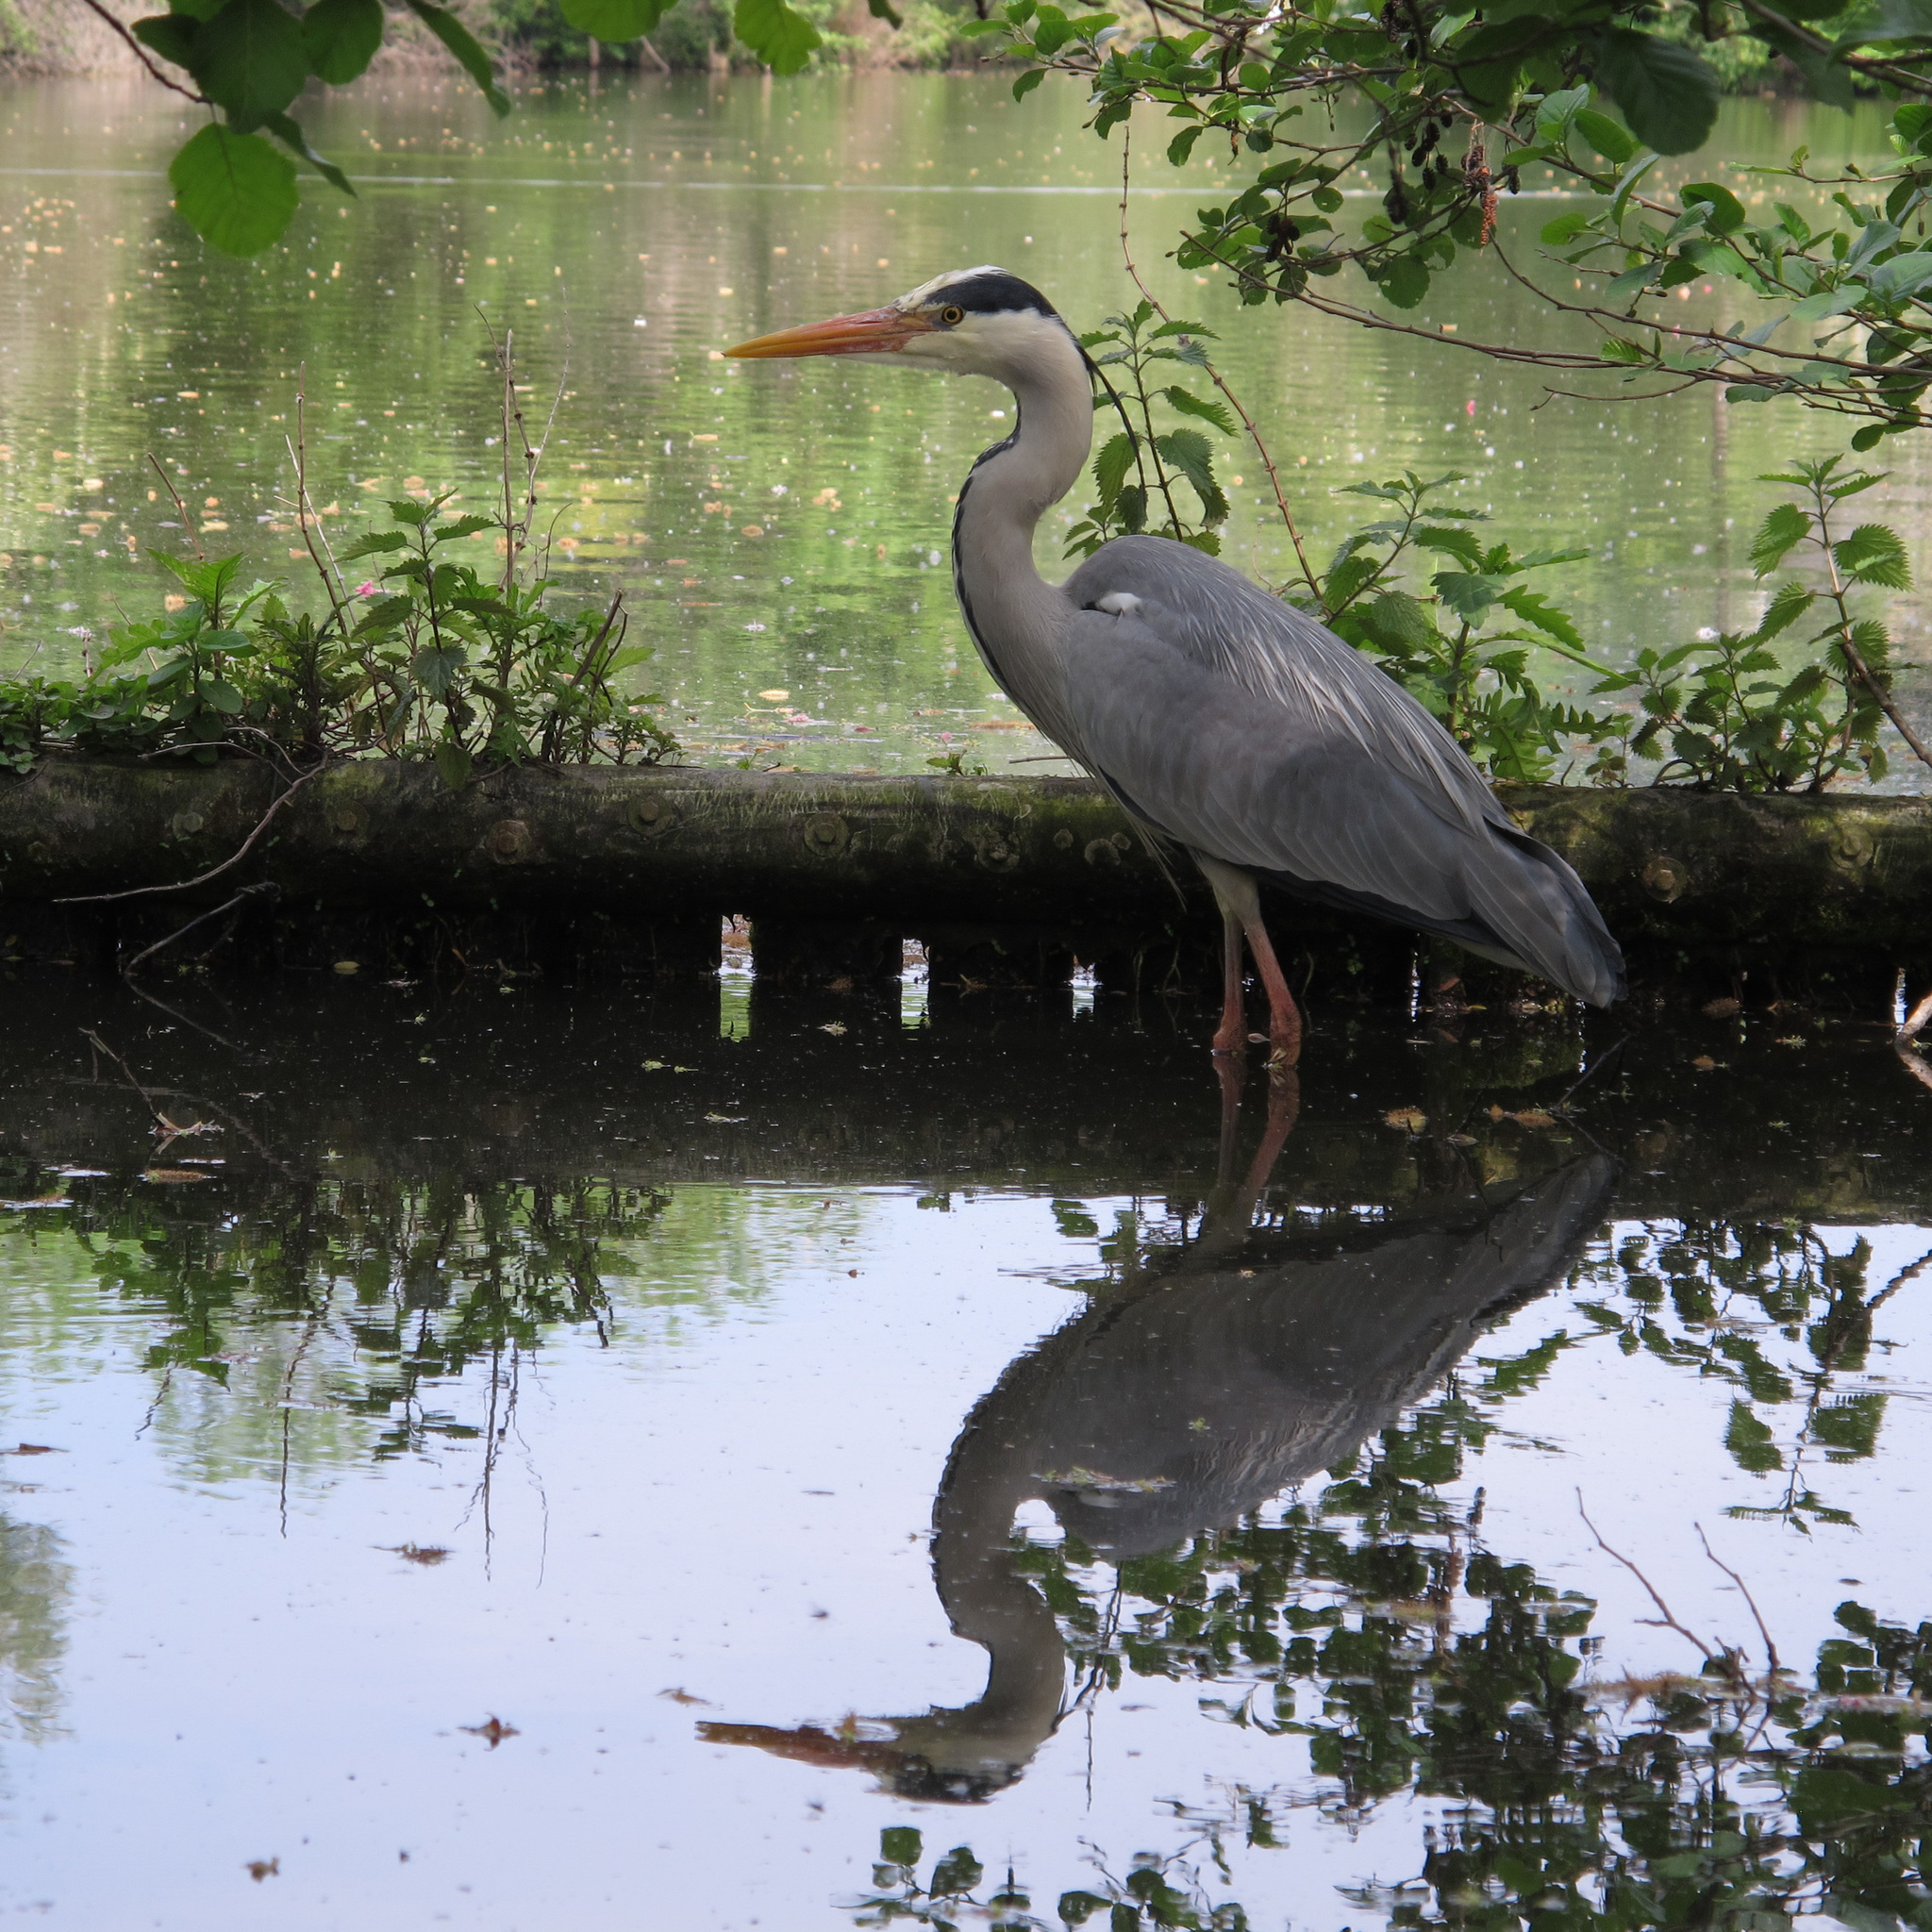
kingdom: Animalia
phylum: Chordata
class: Aves
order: Pelecaniformes
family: Ardeidae
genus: Ardea
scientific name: Ardea cinerea
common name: Grey heron
